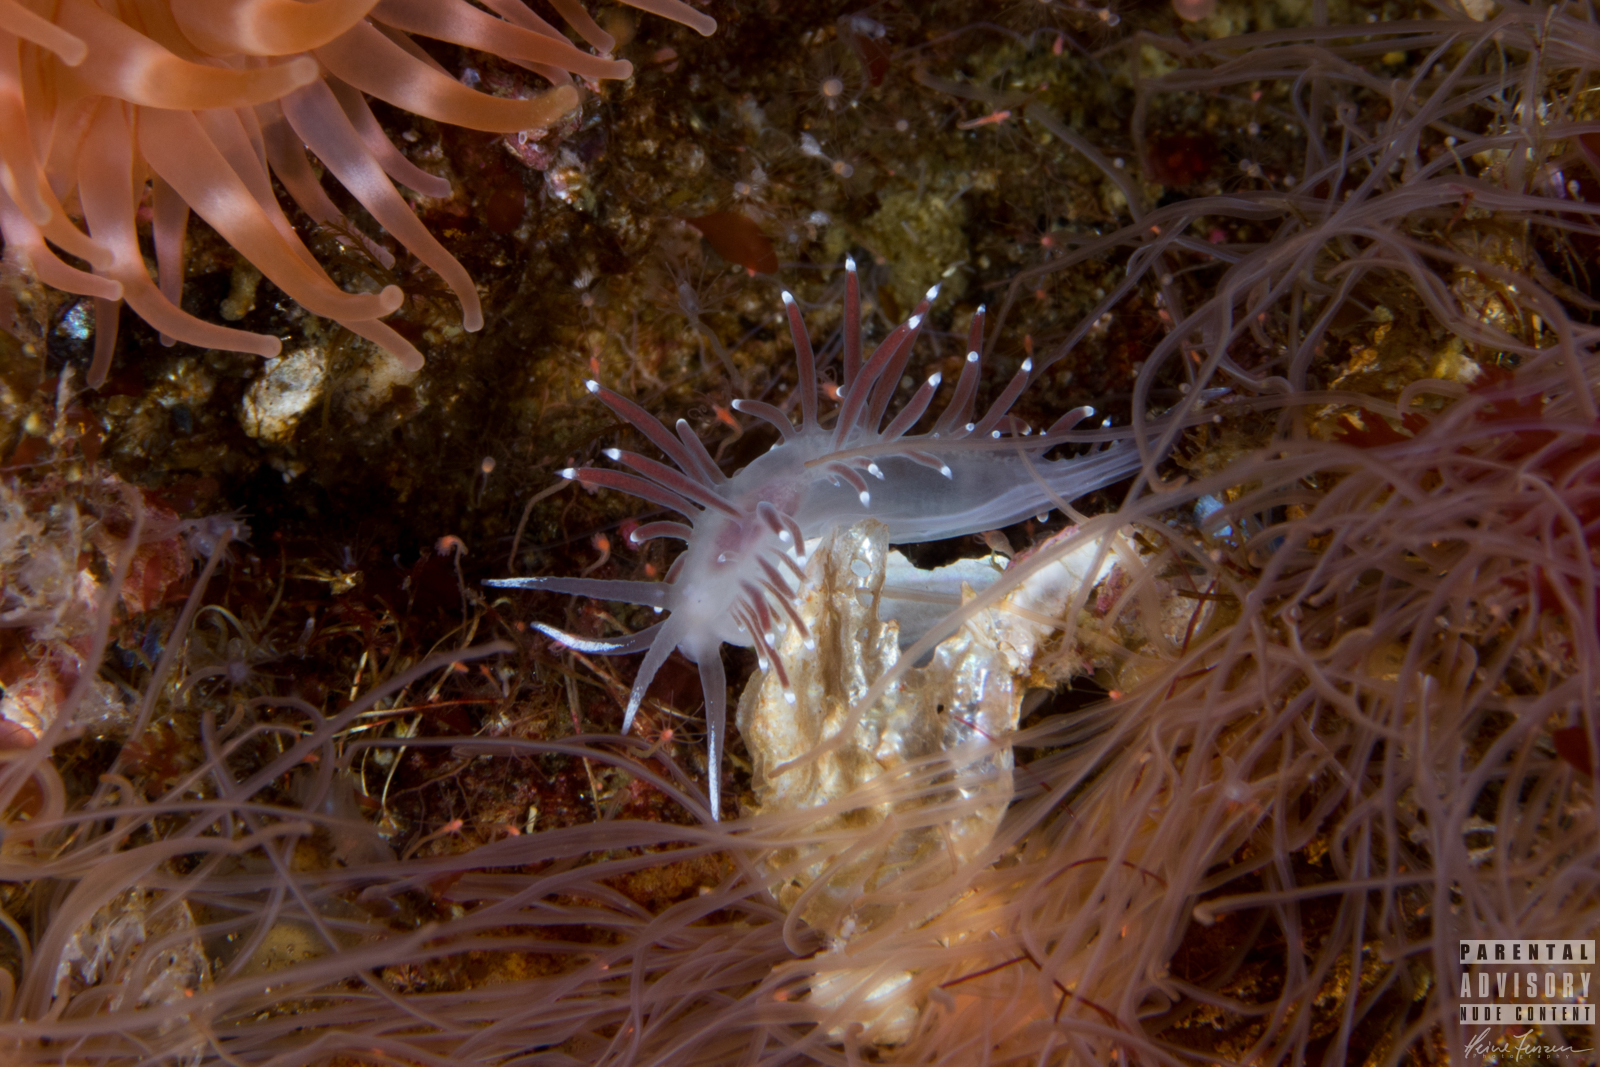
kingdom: Animalia
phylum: Mollusca
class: Gastropoda
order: Nudibranchia
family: Coryphellidae
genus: Coryphella
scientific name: Coryphella browni
